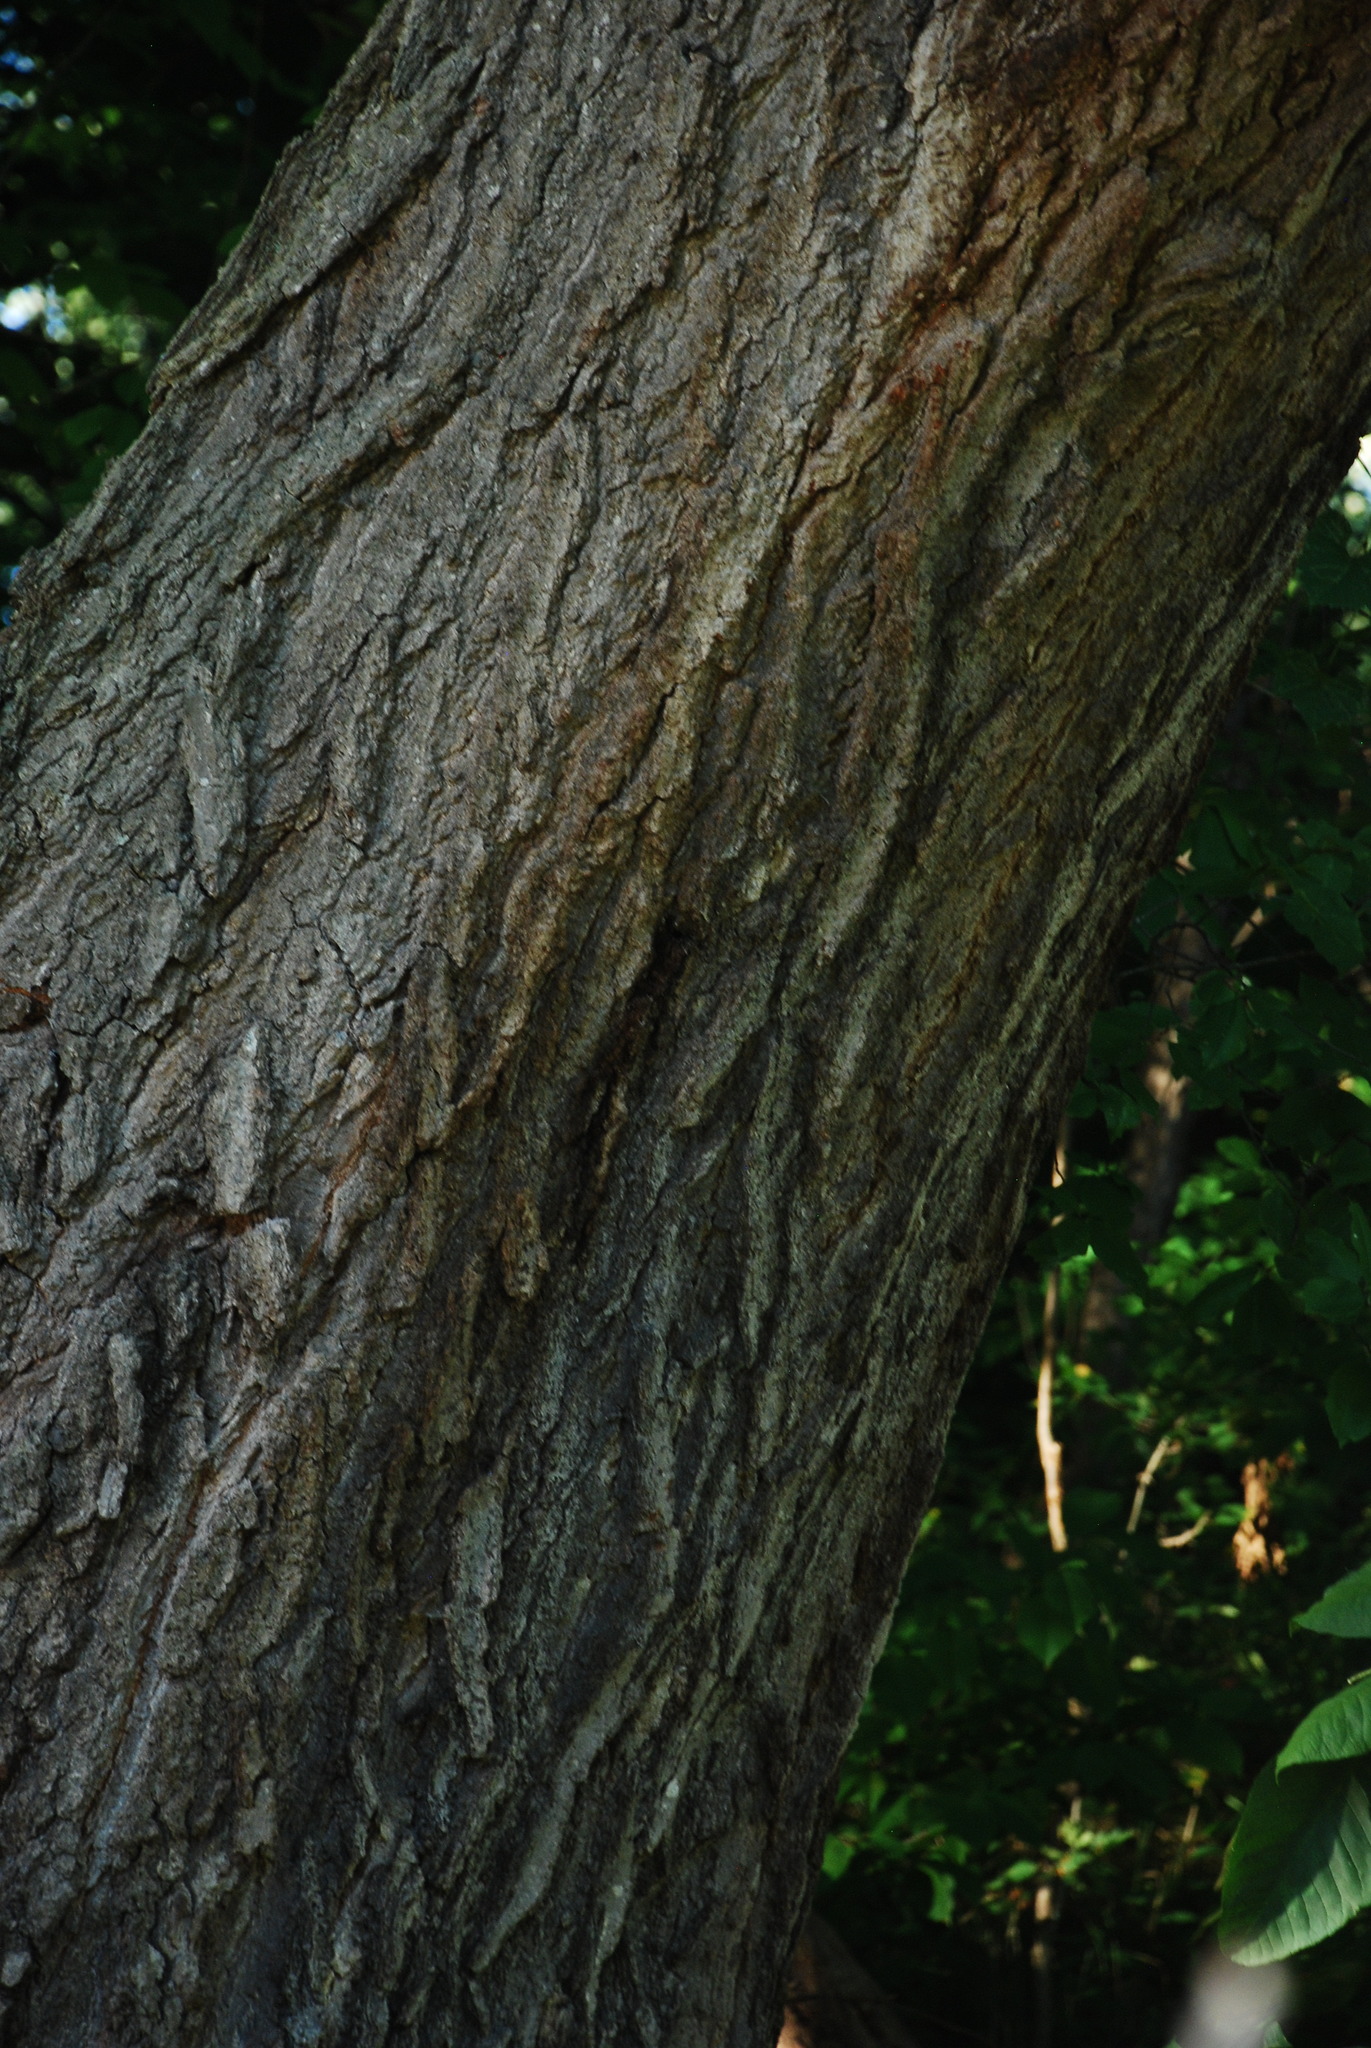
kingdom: Plantae
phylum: Tracheophyta
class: Magnoliopsida
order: Fagales
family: Fagaceae
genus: Quercus
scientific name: Quercus riparia
